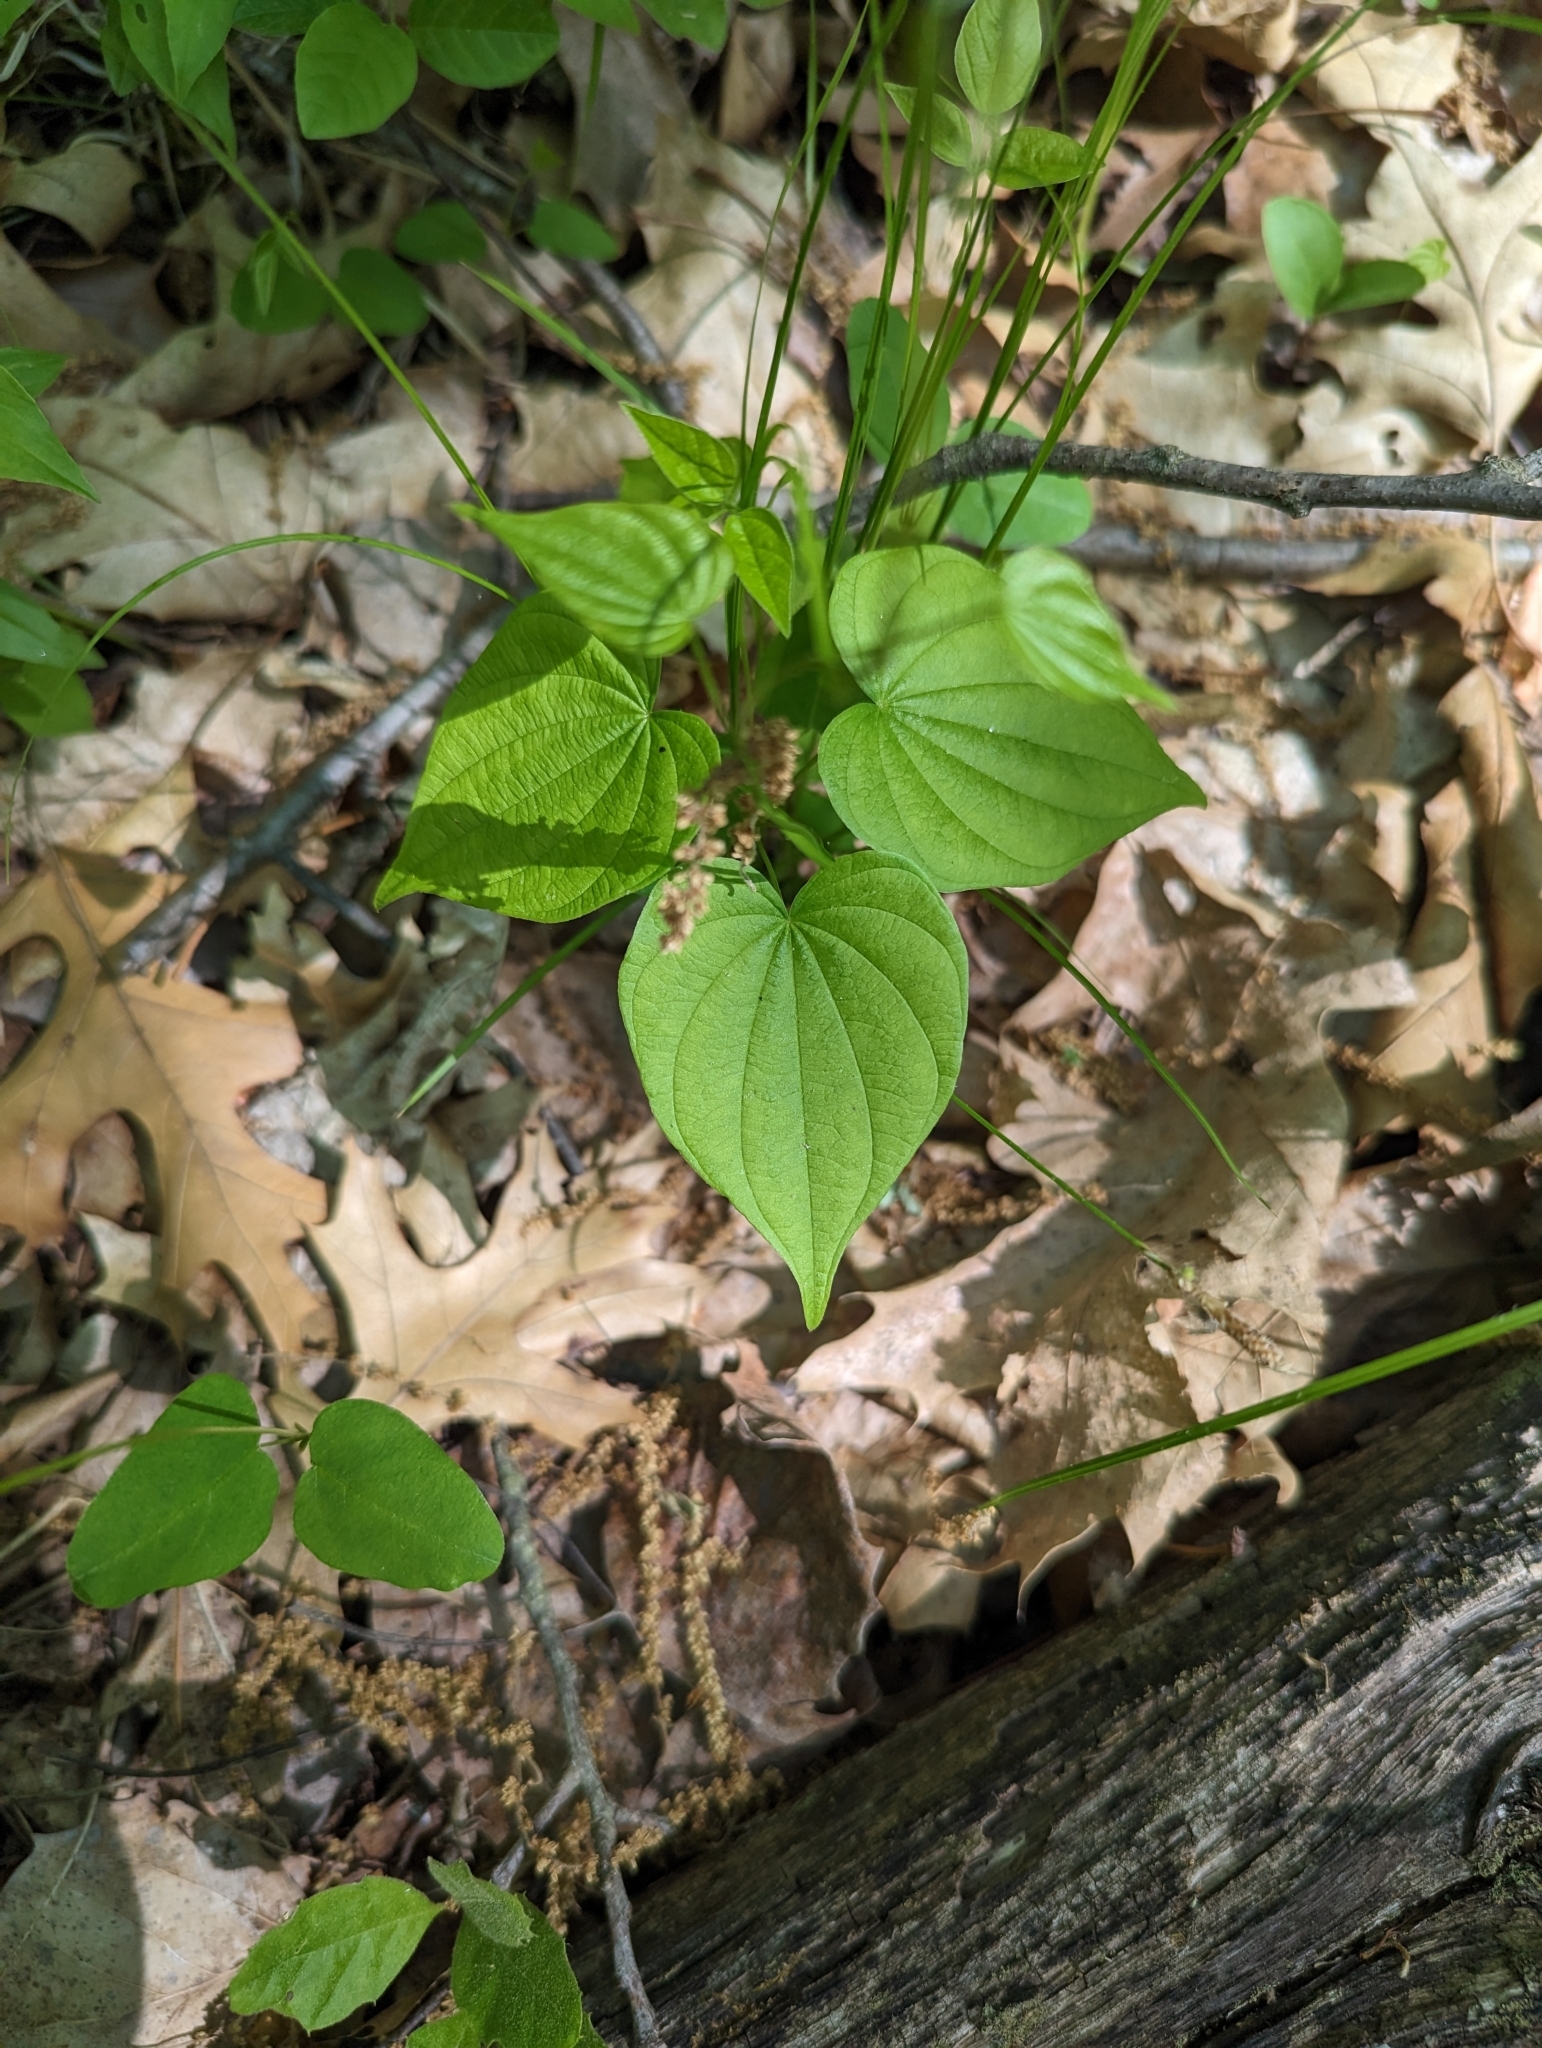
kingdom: Plantae
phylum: Tracheophyta
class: Liliopsida
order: Dioscoreales
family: Dioscoreaceae
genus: Dioscorea
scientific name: Dioscorea villosa
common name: Wild yam
